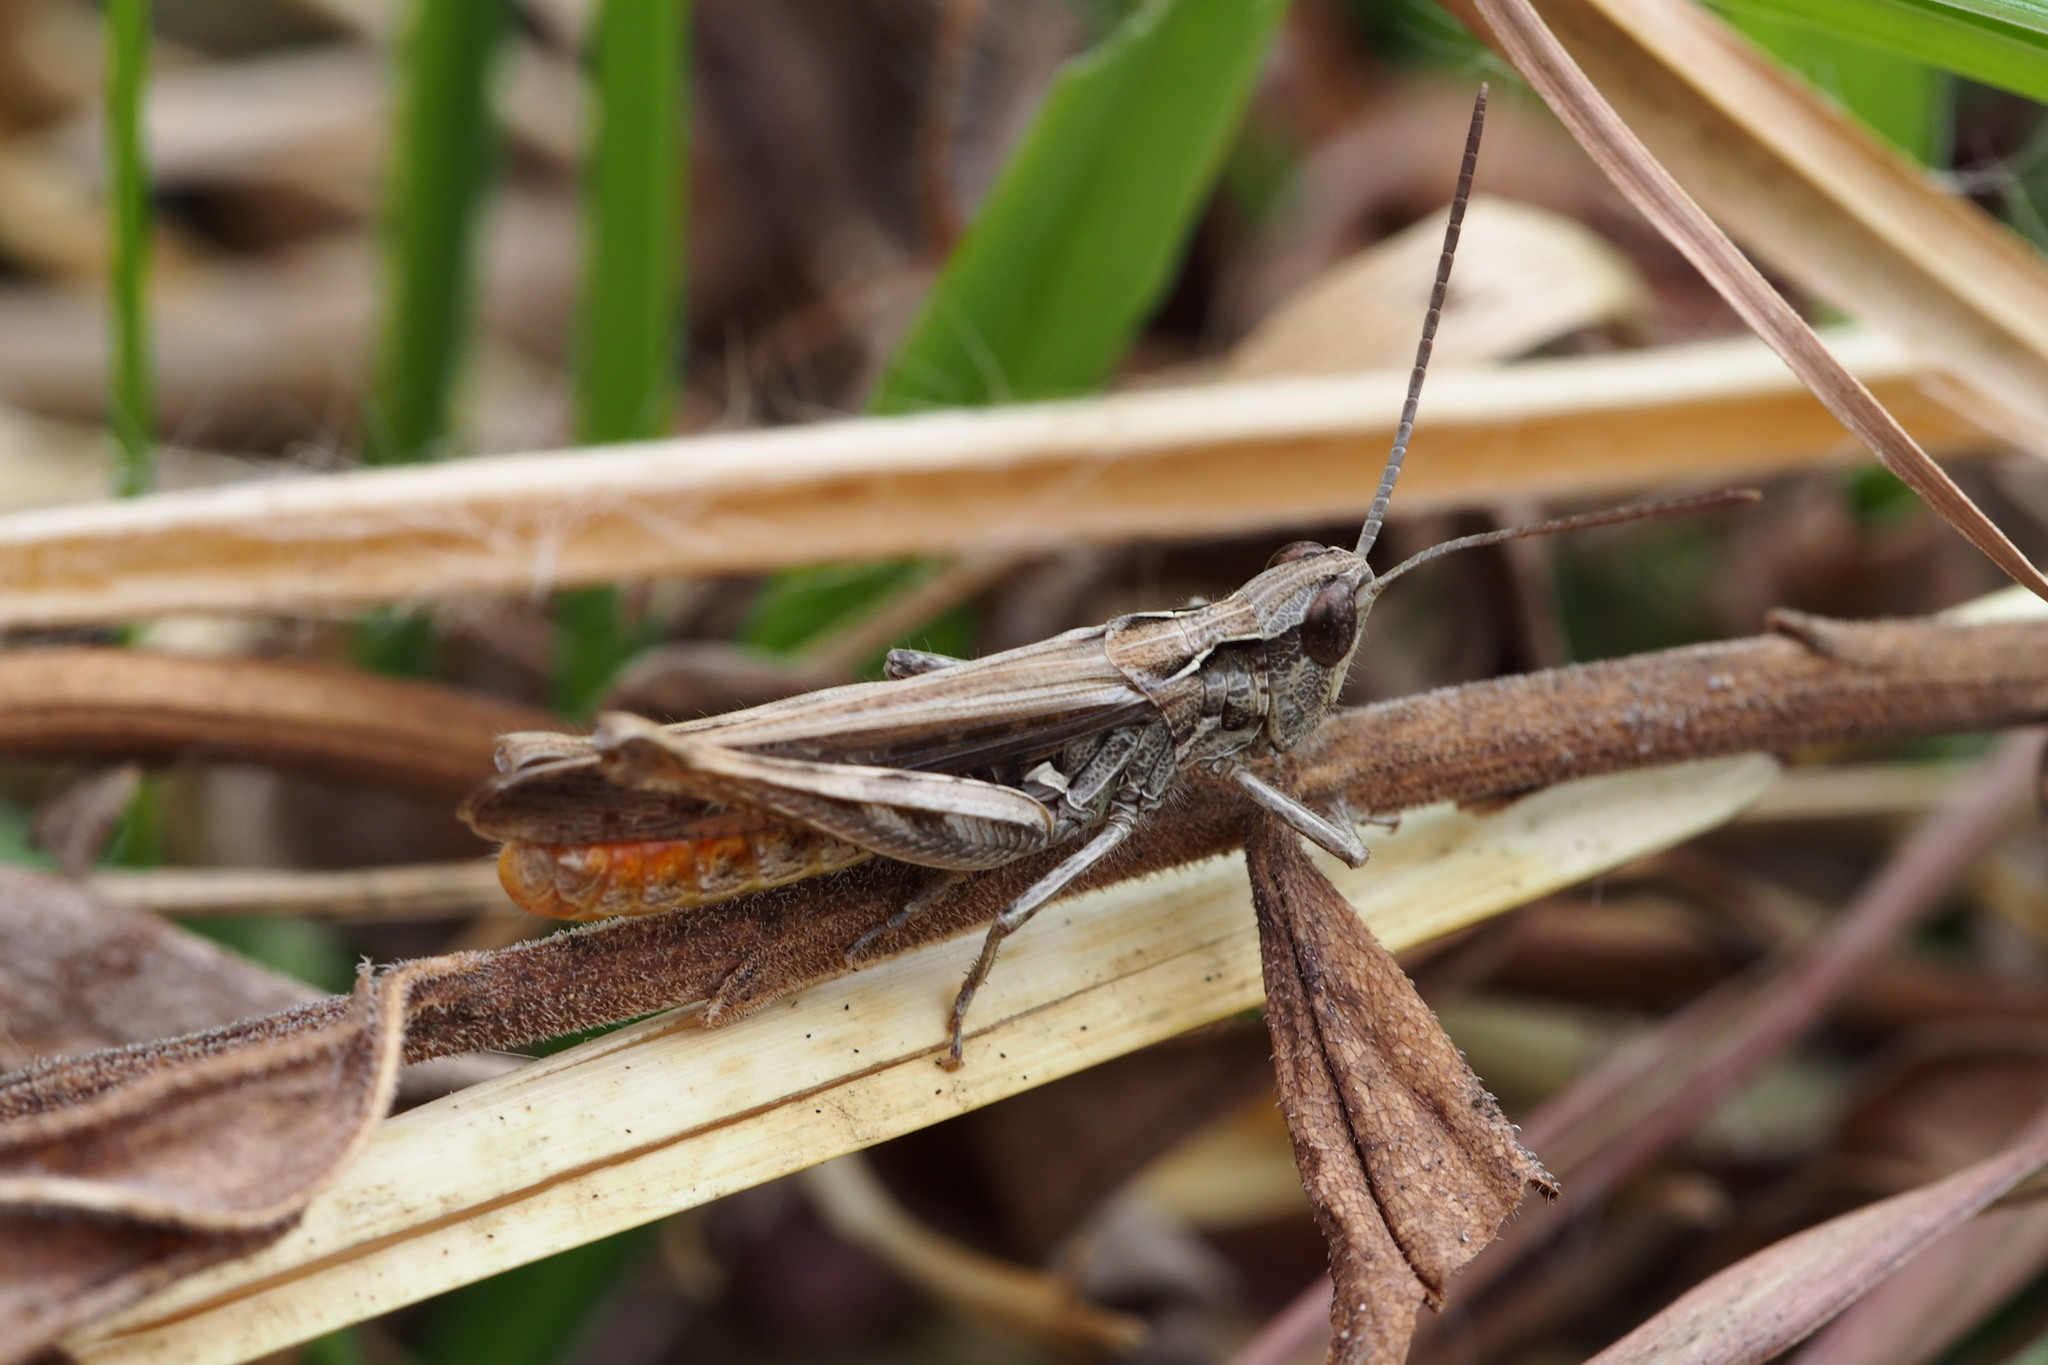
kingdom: Animalia
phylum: Arthropoda
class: Insecta
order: Orthoptera
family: Acrididae
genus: Chorthippus
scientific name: Chorthippus maritimus
